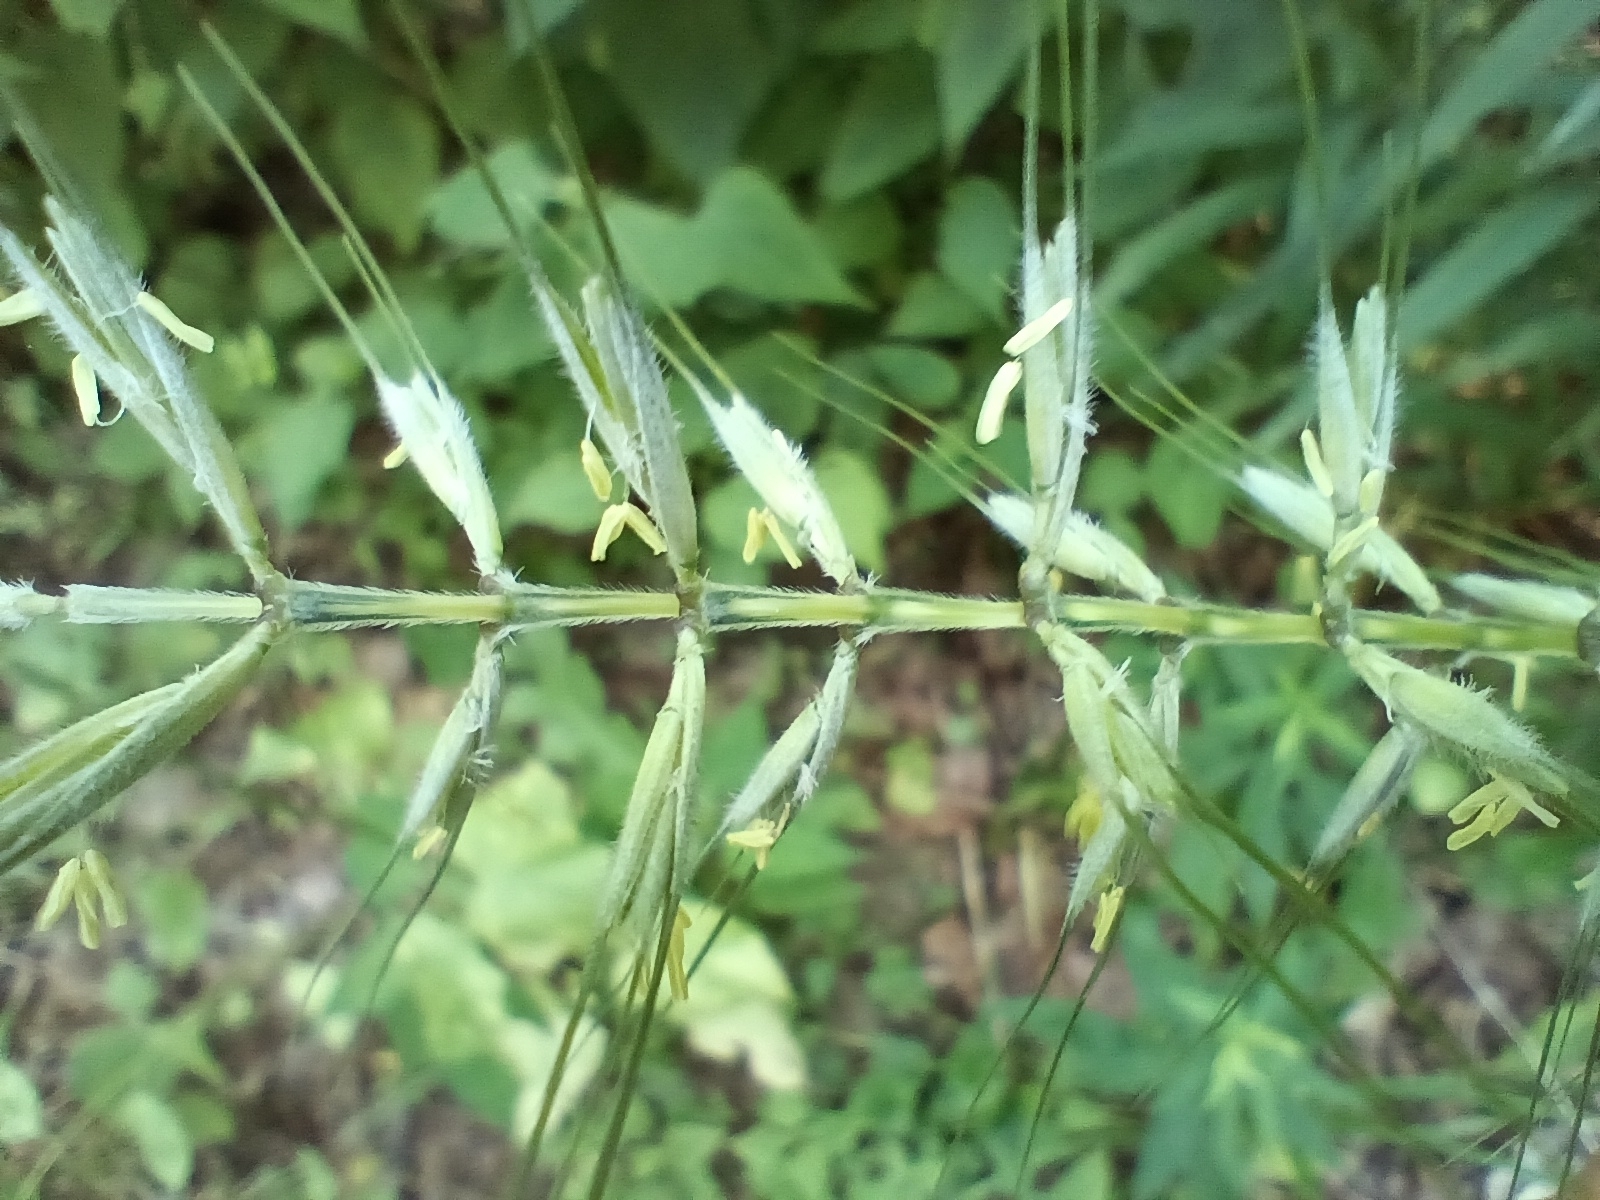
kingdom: Plantae
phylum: Tracheophyta
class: Liliopsida
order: Poales
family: Poaceae
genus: Elymus
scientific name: Elymus hystrix
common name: Bottlebrush grass
